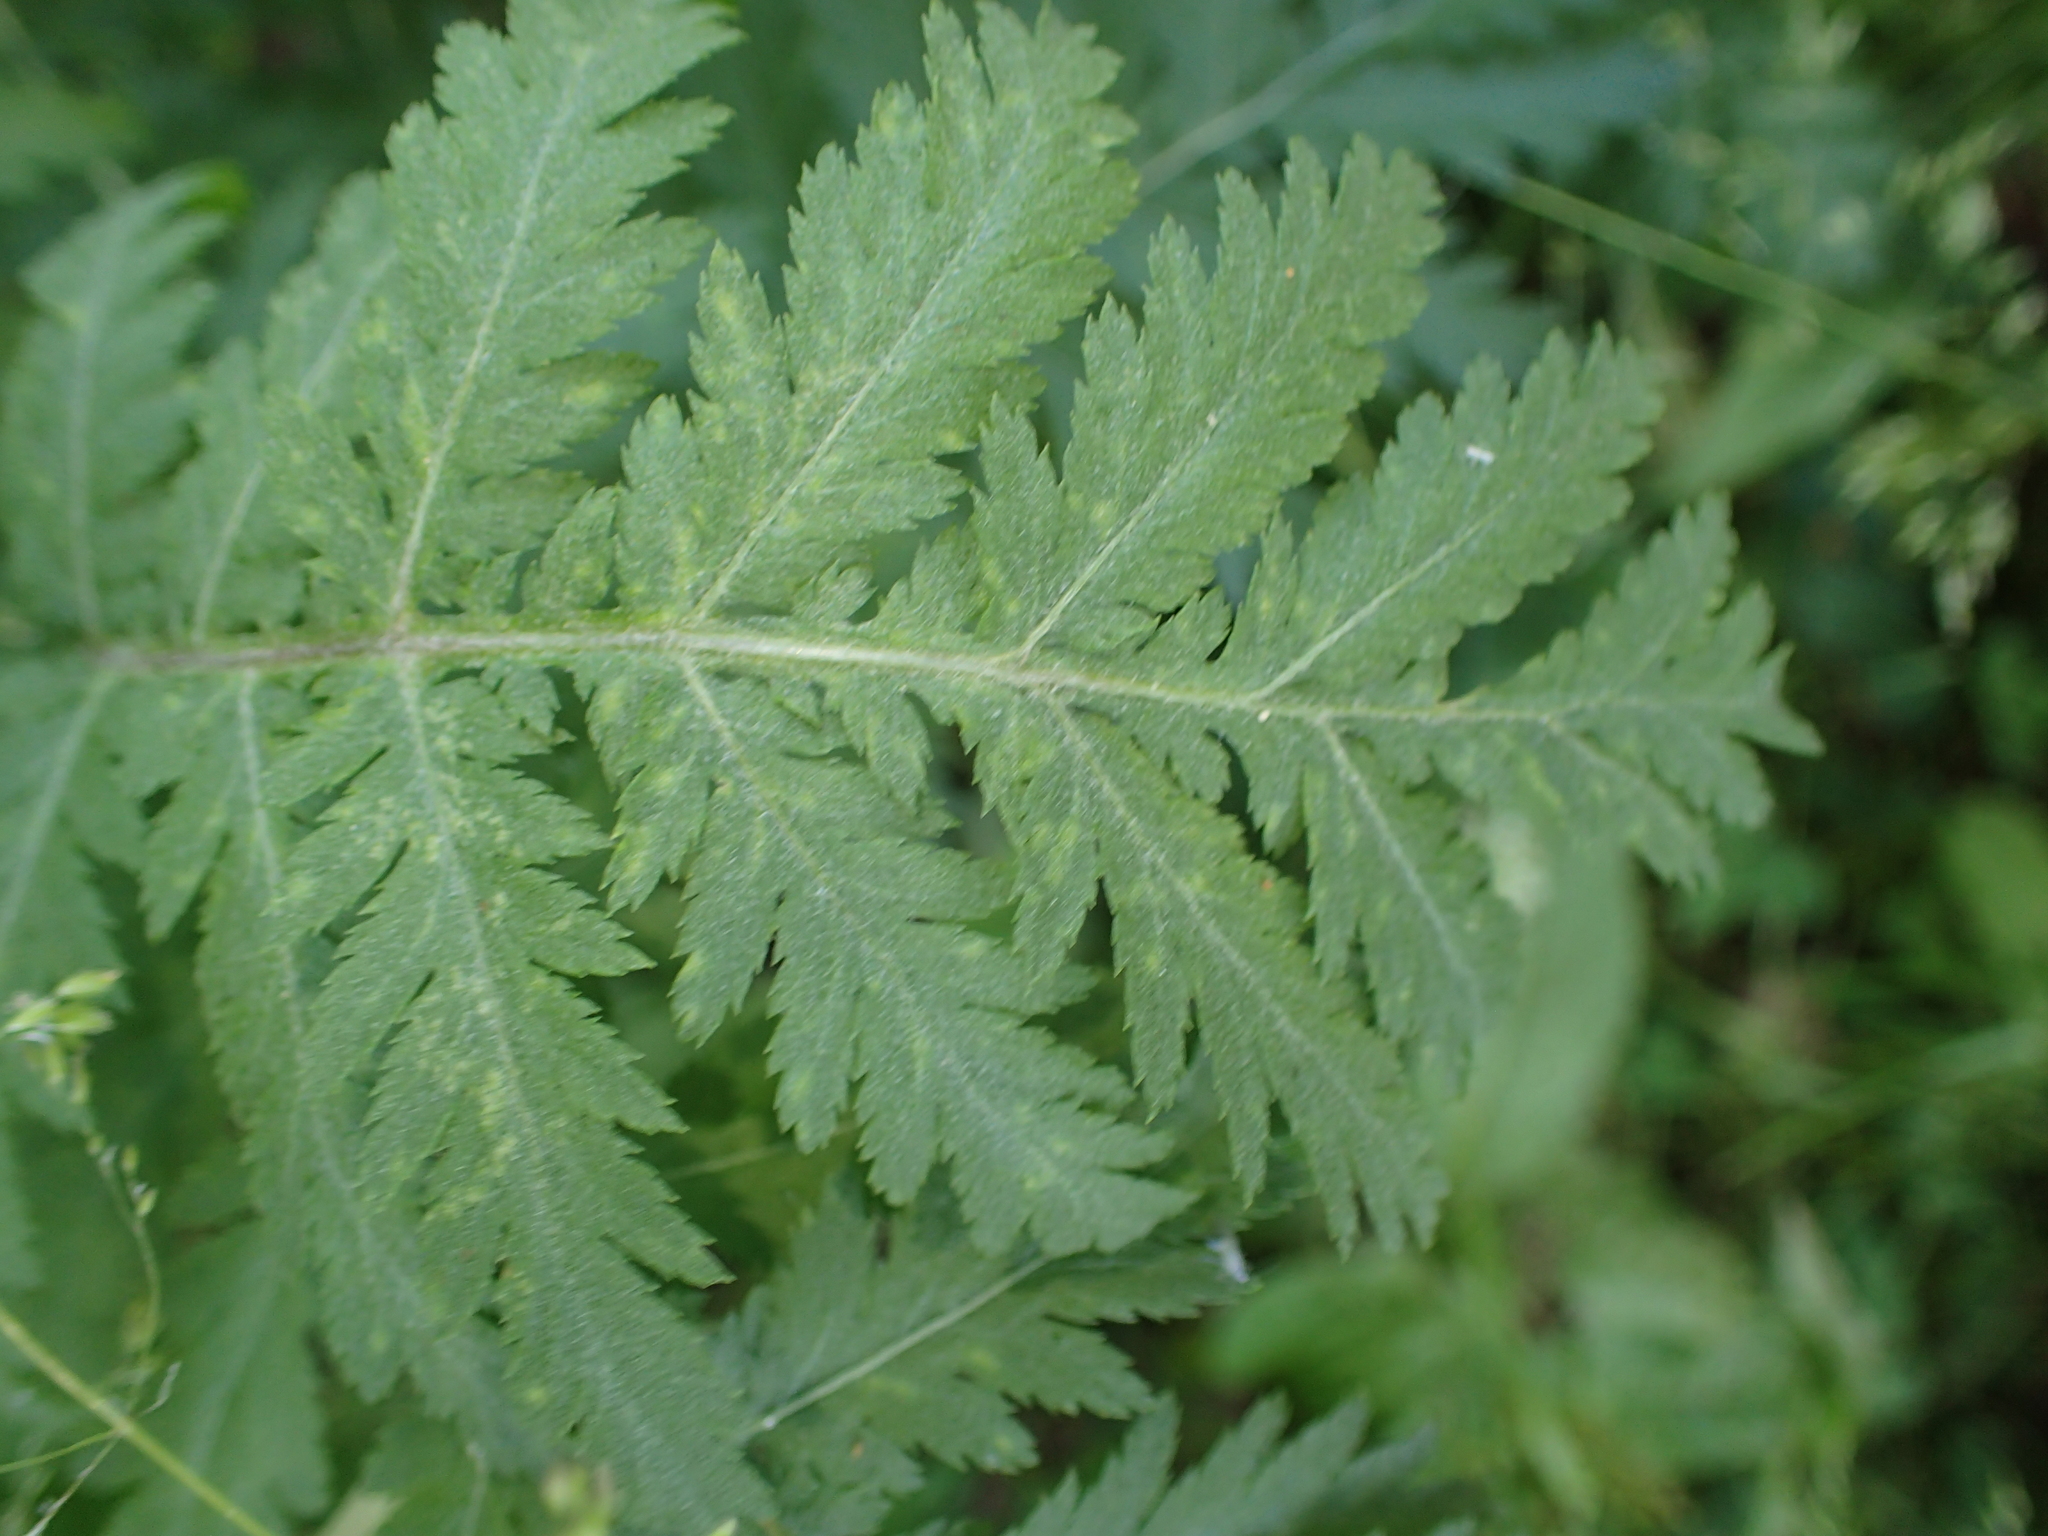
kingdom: Plantae
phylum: Tracheophyta
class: Magnoliopsida
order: Asterales
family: Asteraceae
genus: Tanacetum
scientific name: Tanacetum vulgare
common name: Common tansy
